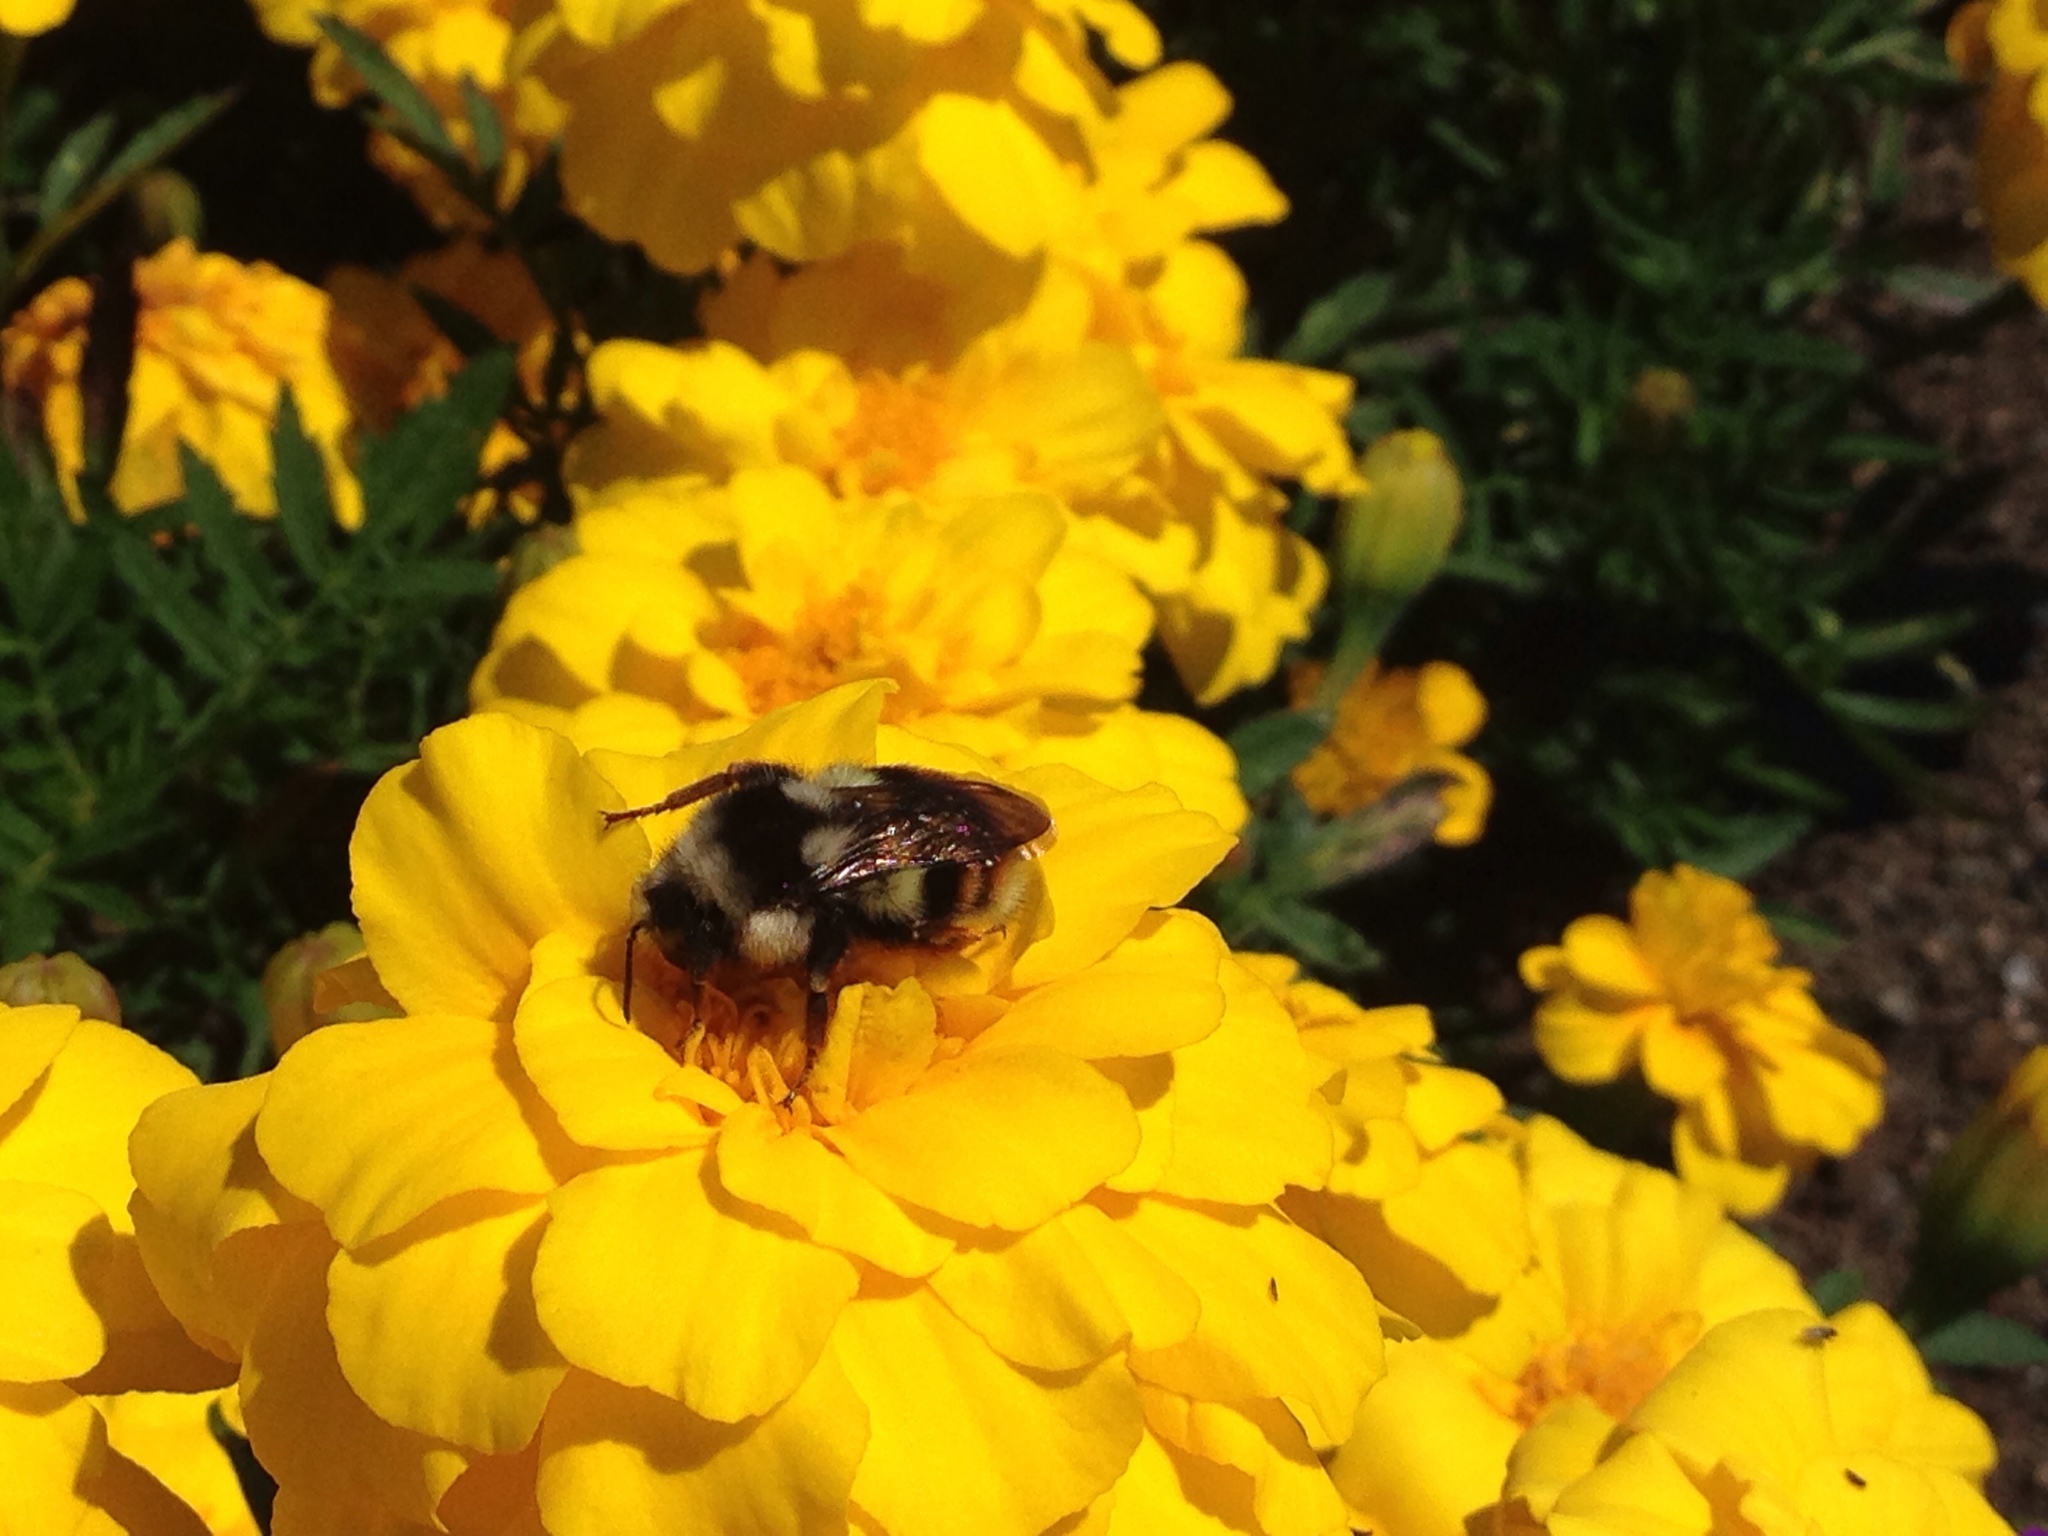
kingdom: Animalia
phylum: Arthropoda
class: Insecta
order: Hymenoptera
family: Apidae
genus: Bombus
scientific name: Bombus vancouverensis
